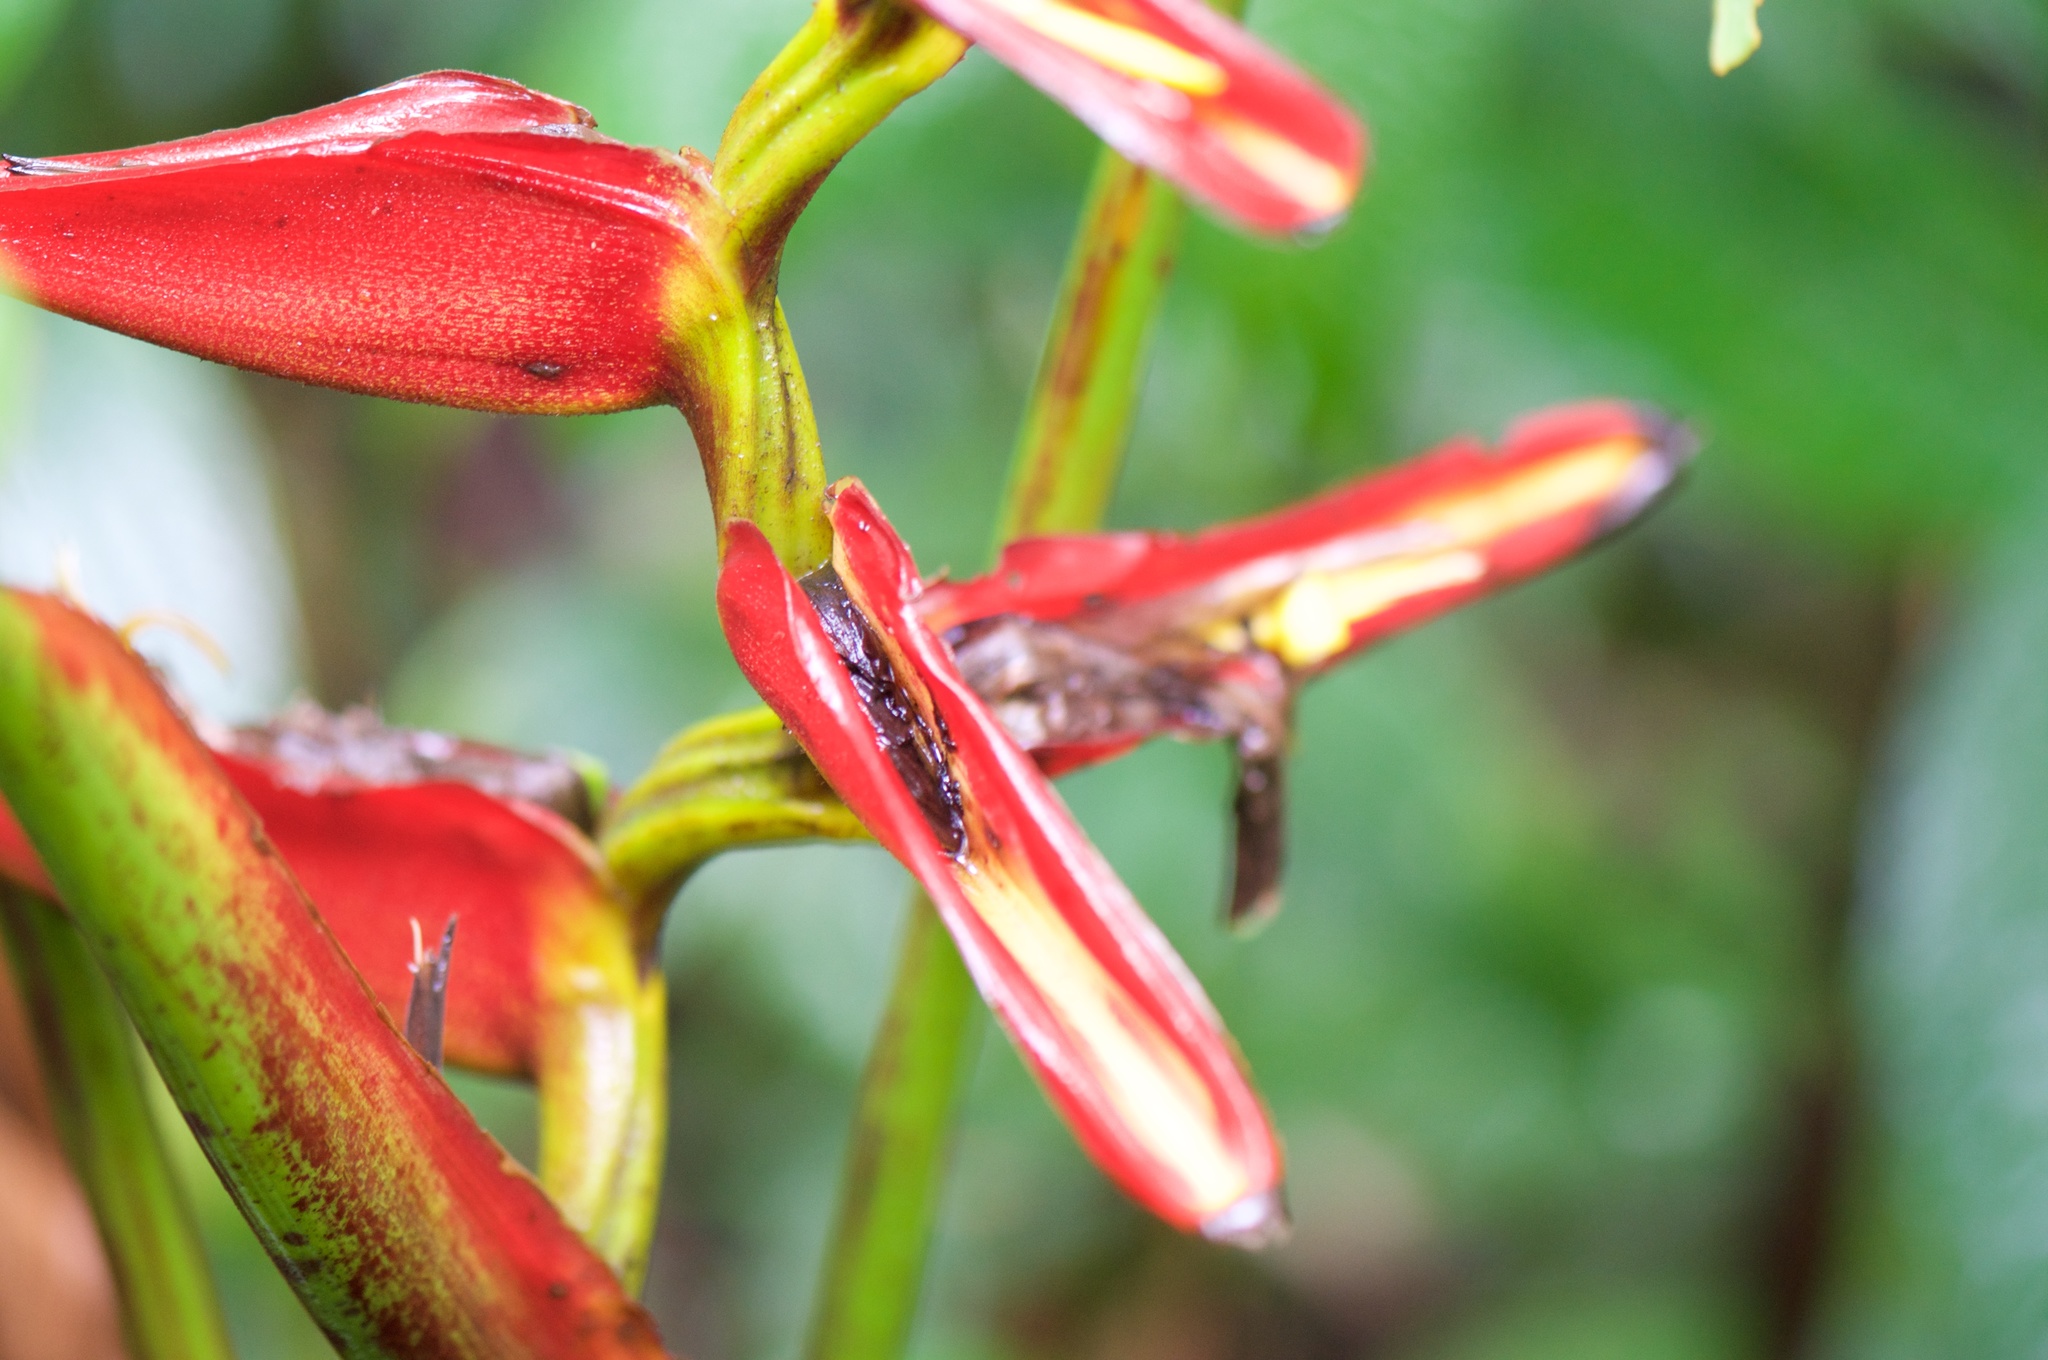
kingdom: Plantae
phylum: Tracheophyta
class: Liliopsida
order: Zingiberales
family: Heliconiaceae
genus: Heliconia
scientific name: Heliconia tortuosa
